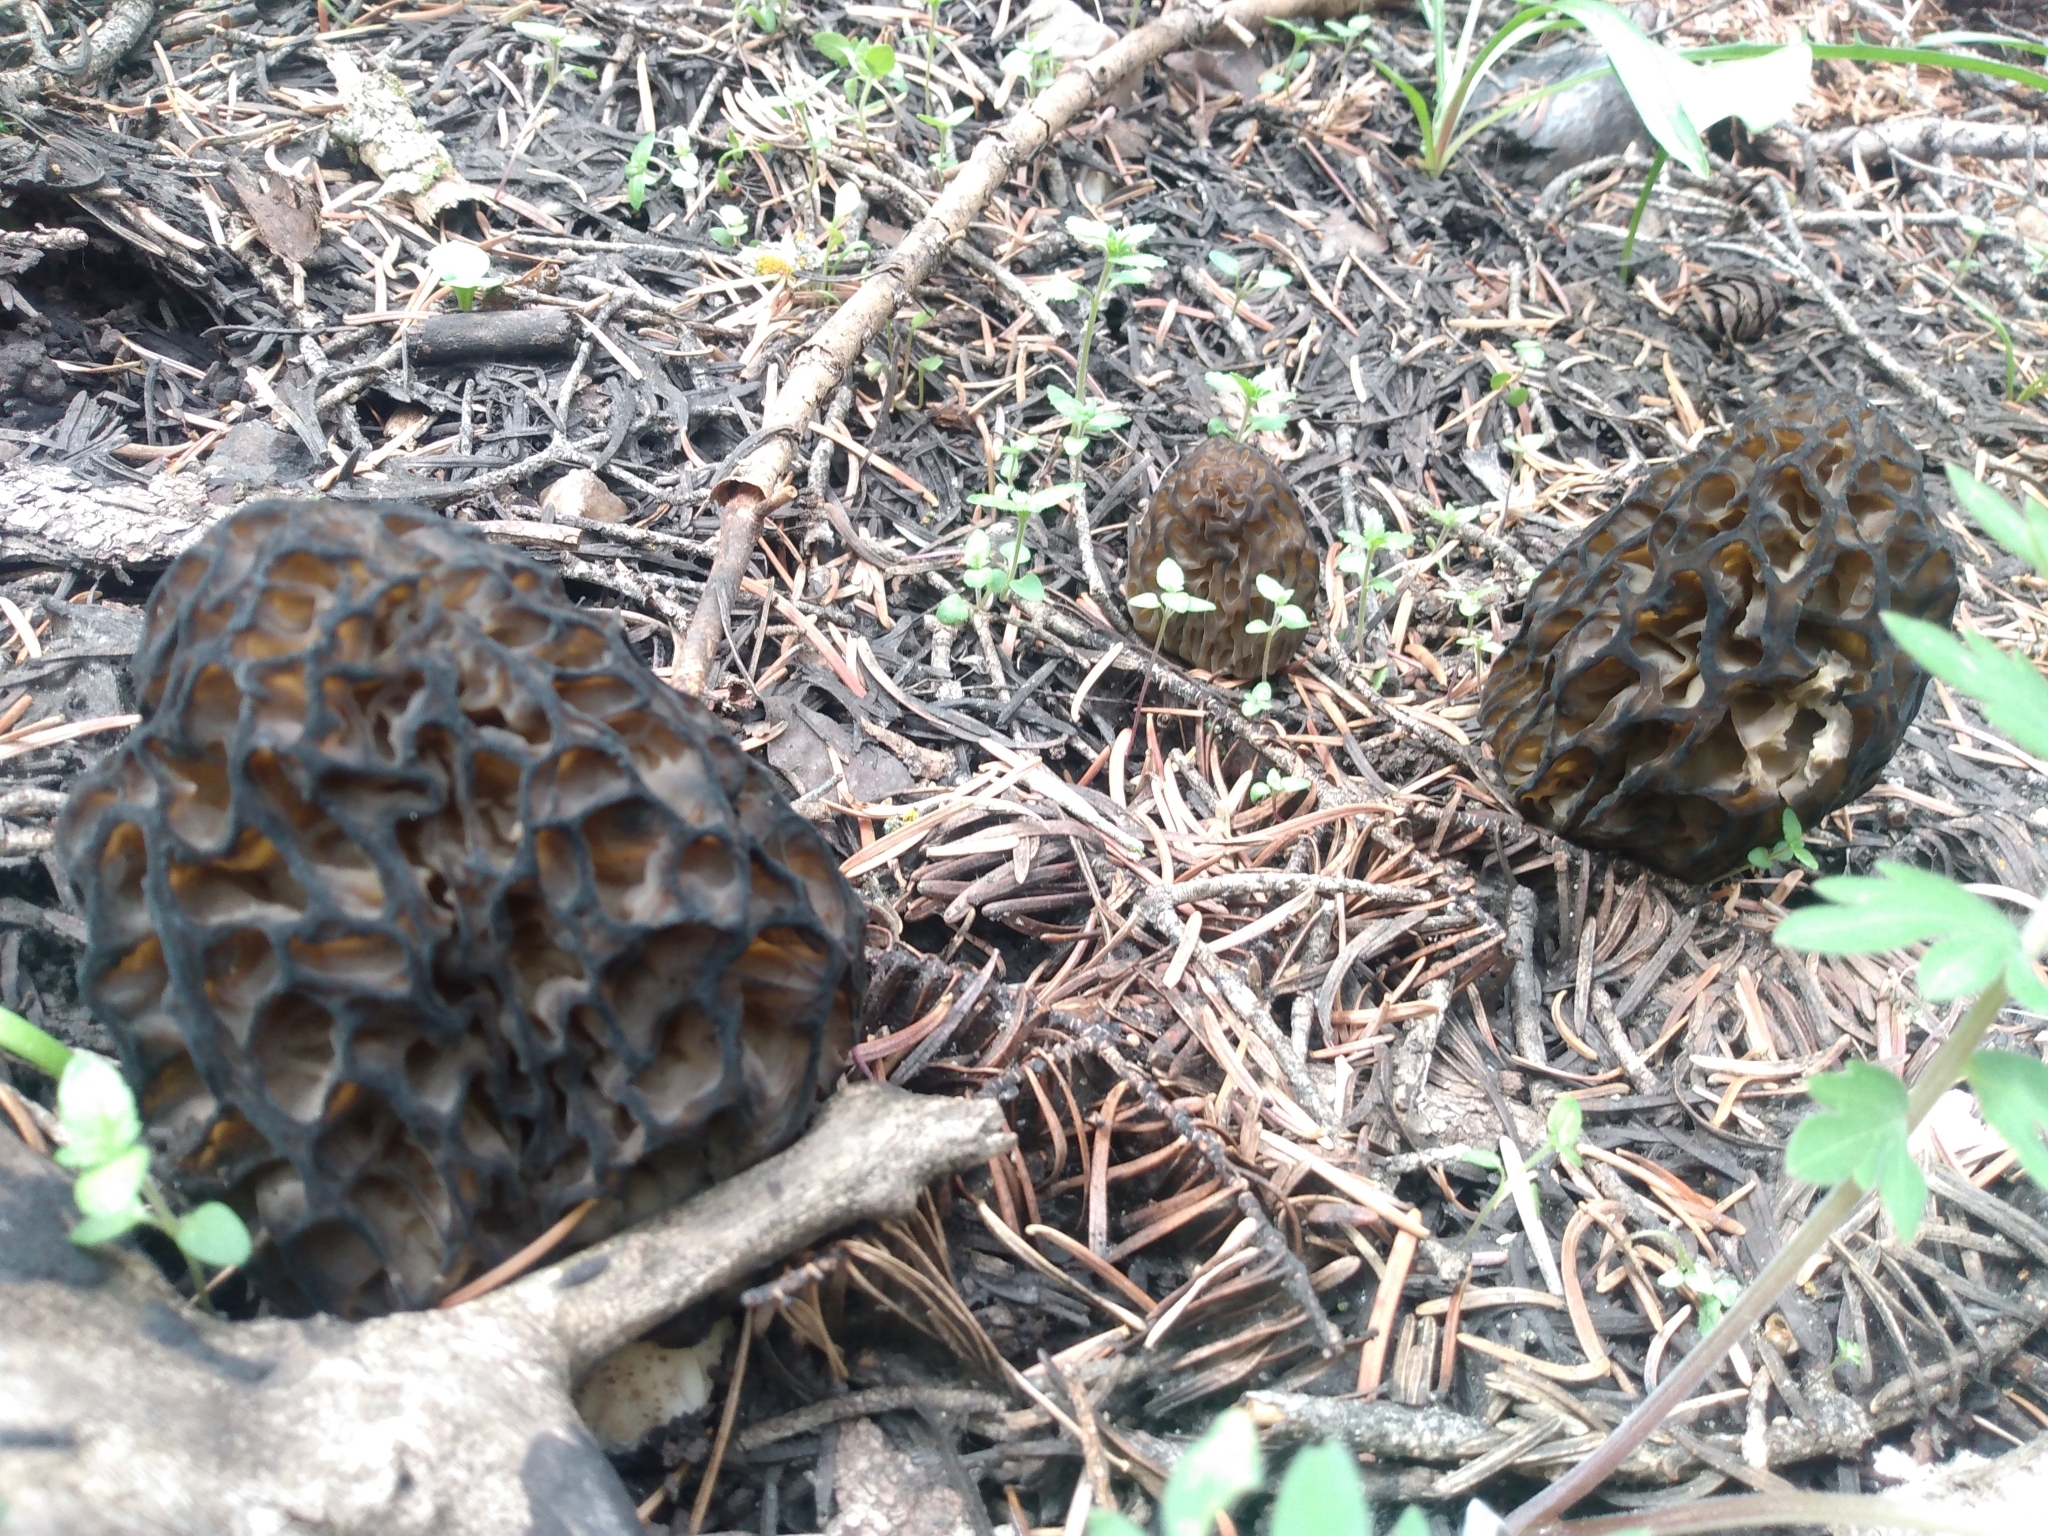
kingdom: Fungi
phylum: Ascomycota
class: Pezizomycetes
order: Pezizales
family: Morchellaceae
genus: Morchella
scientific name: Morchella snyderi
